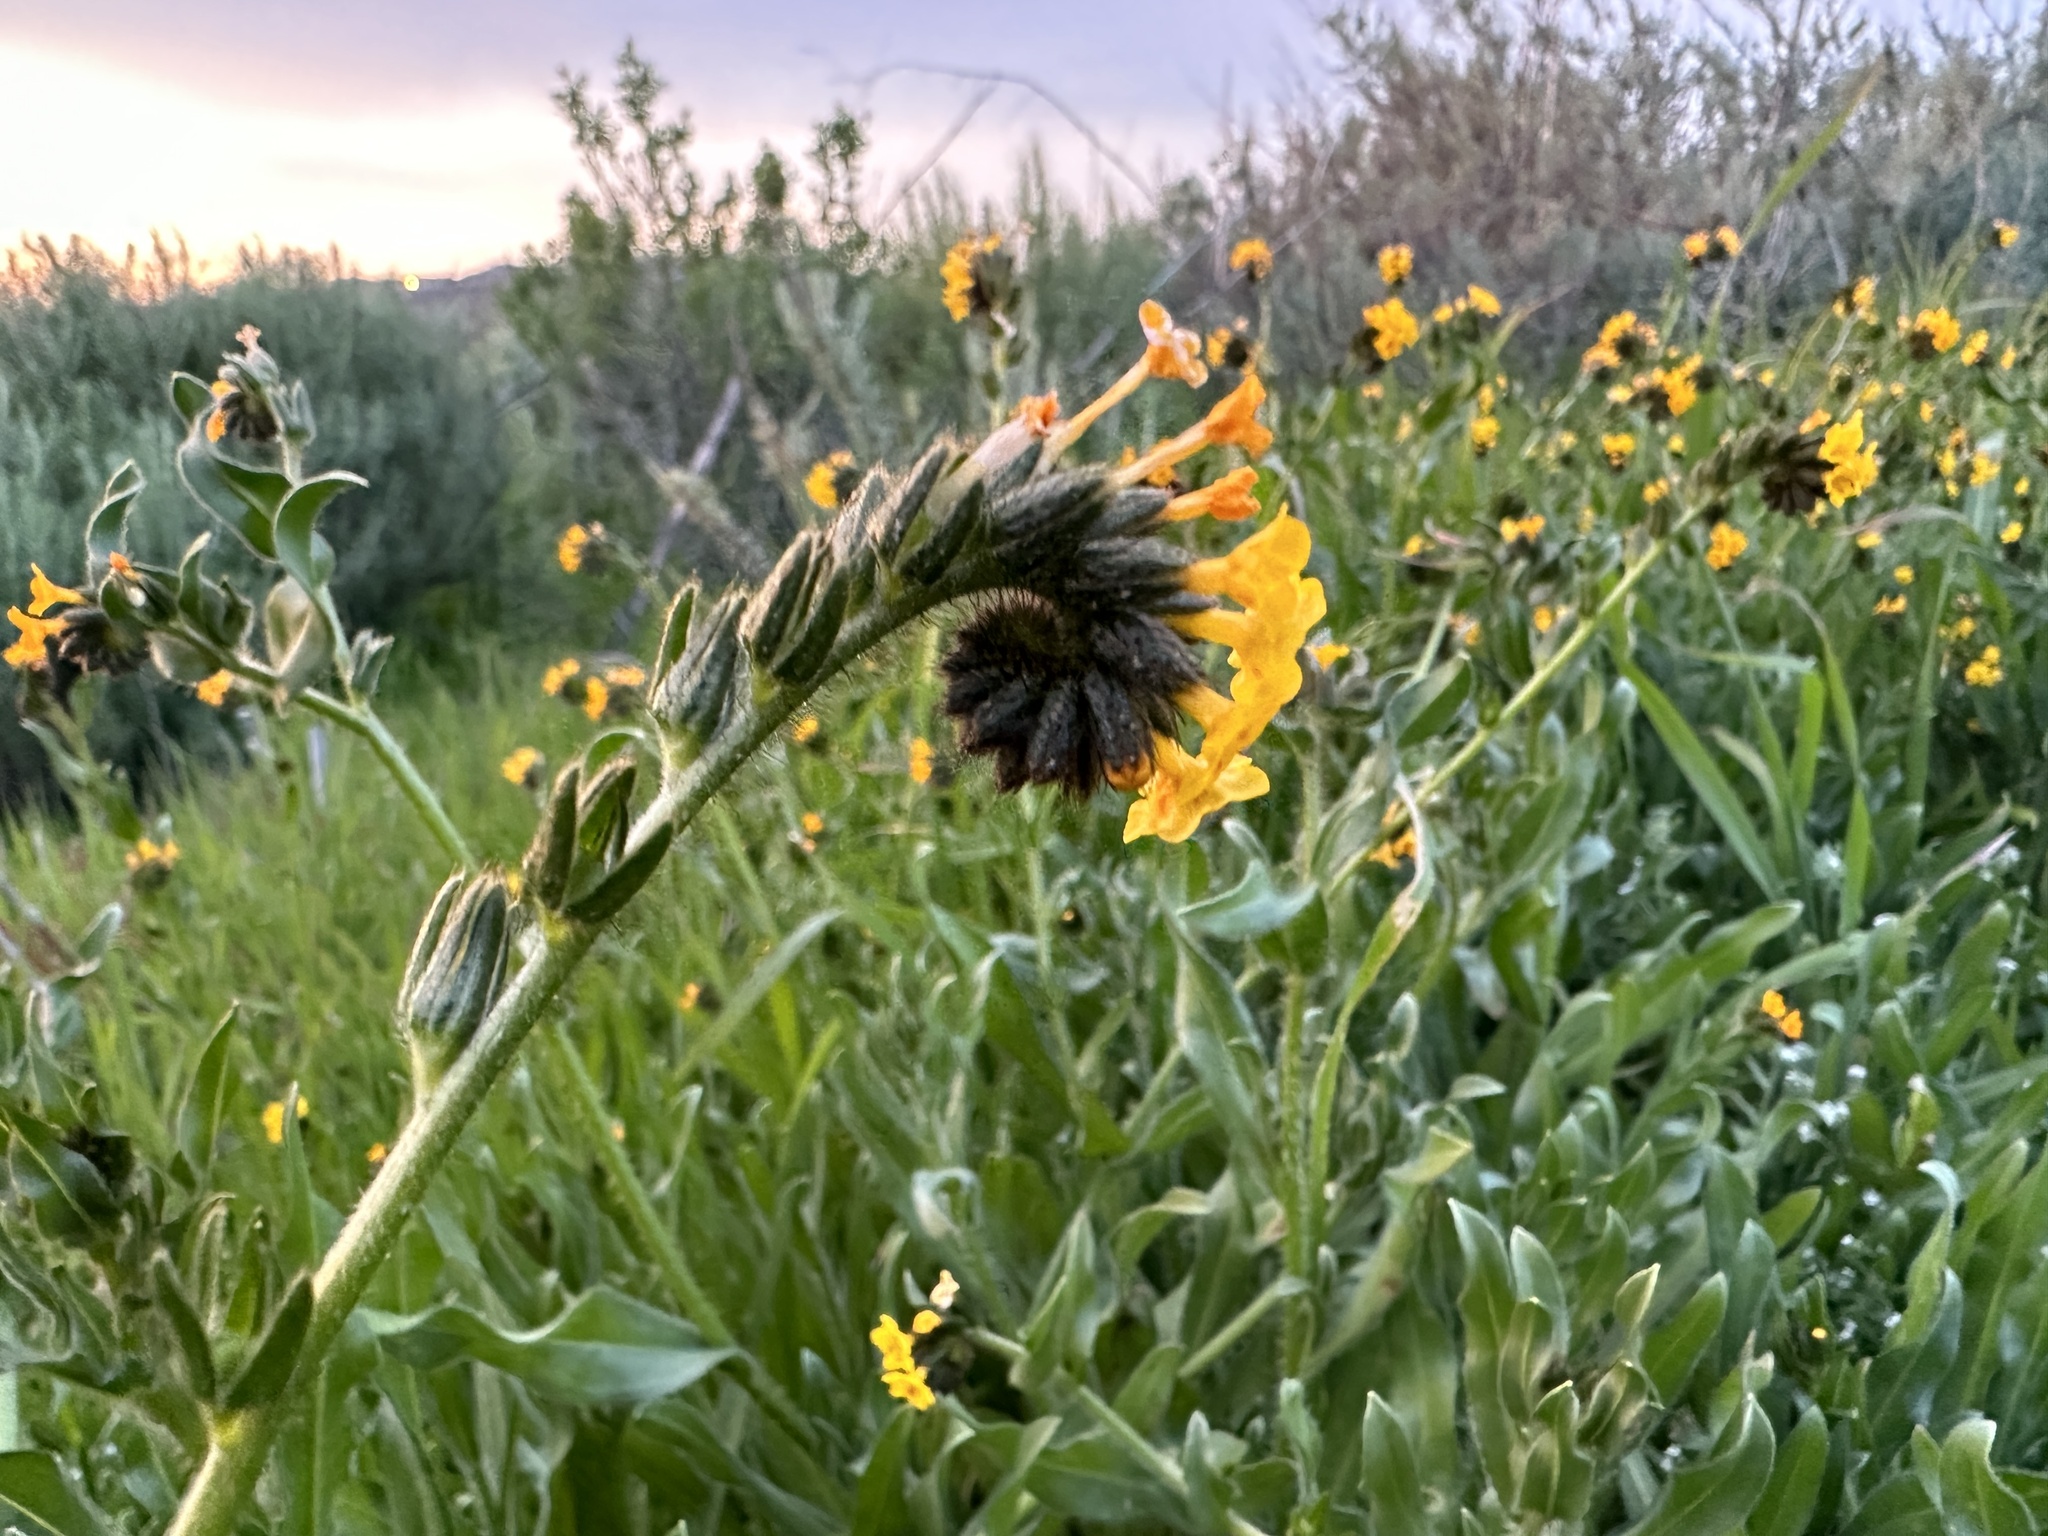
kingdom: Plantae
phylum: Tracheophyta
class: Magnoliopsida
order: Boraginales
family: Boraginaceae
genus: Amsinckia
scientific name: Amsinckia menziesii
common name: Menzies' fiddleneck
